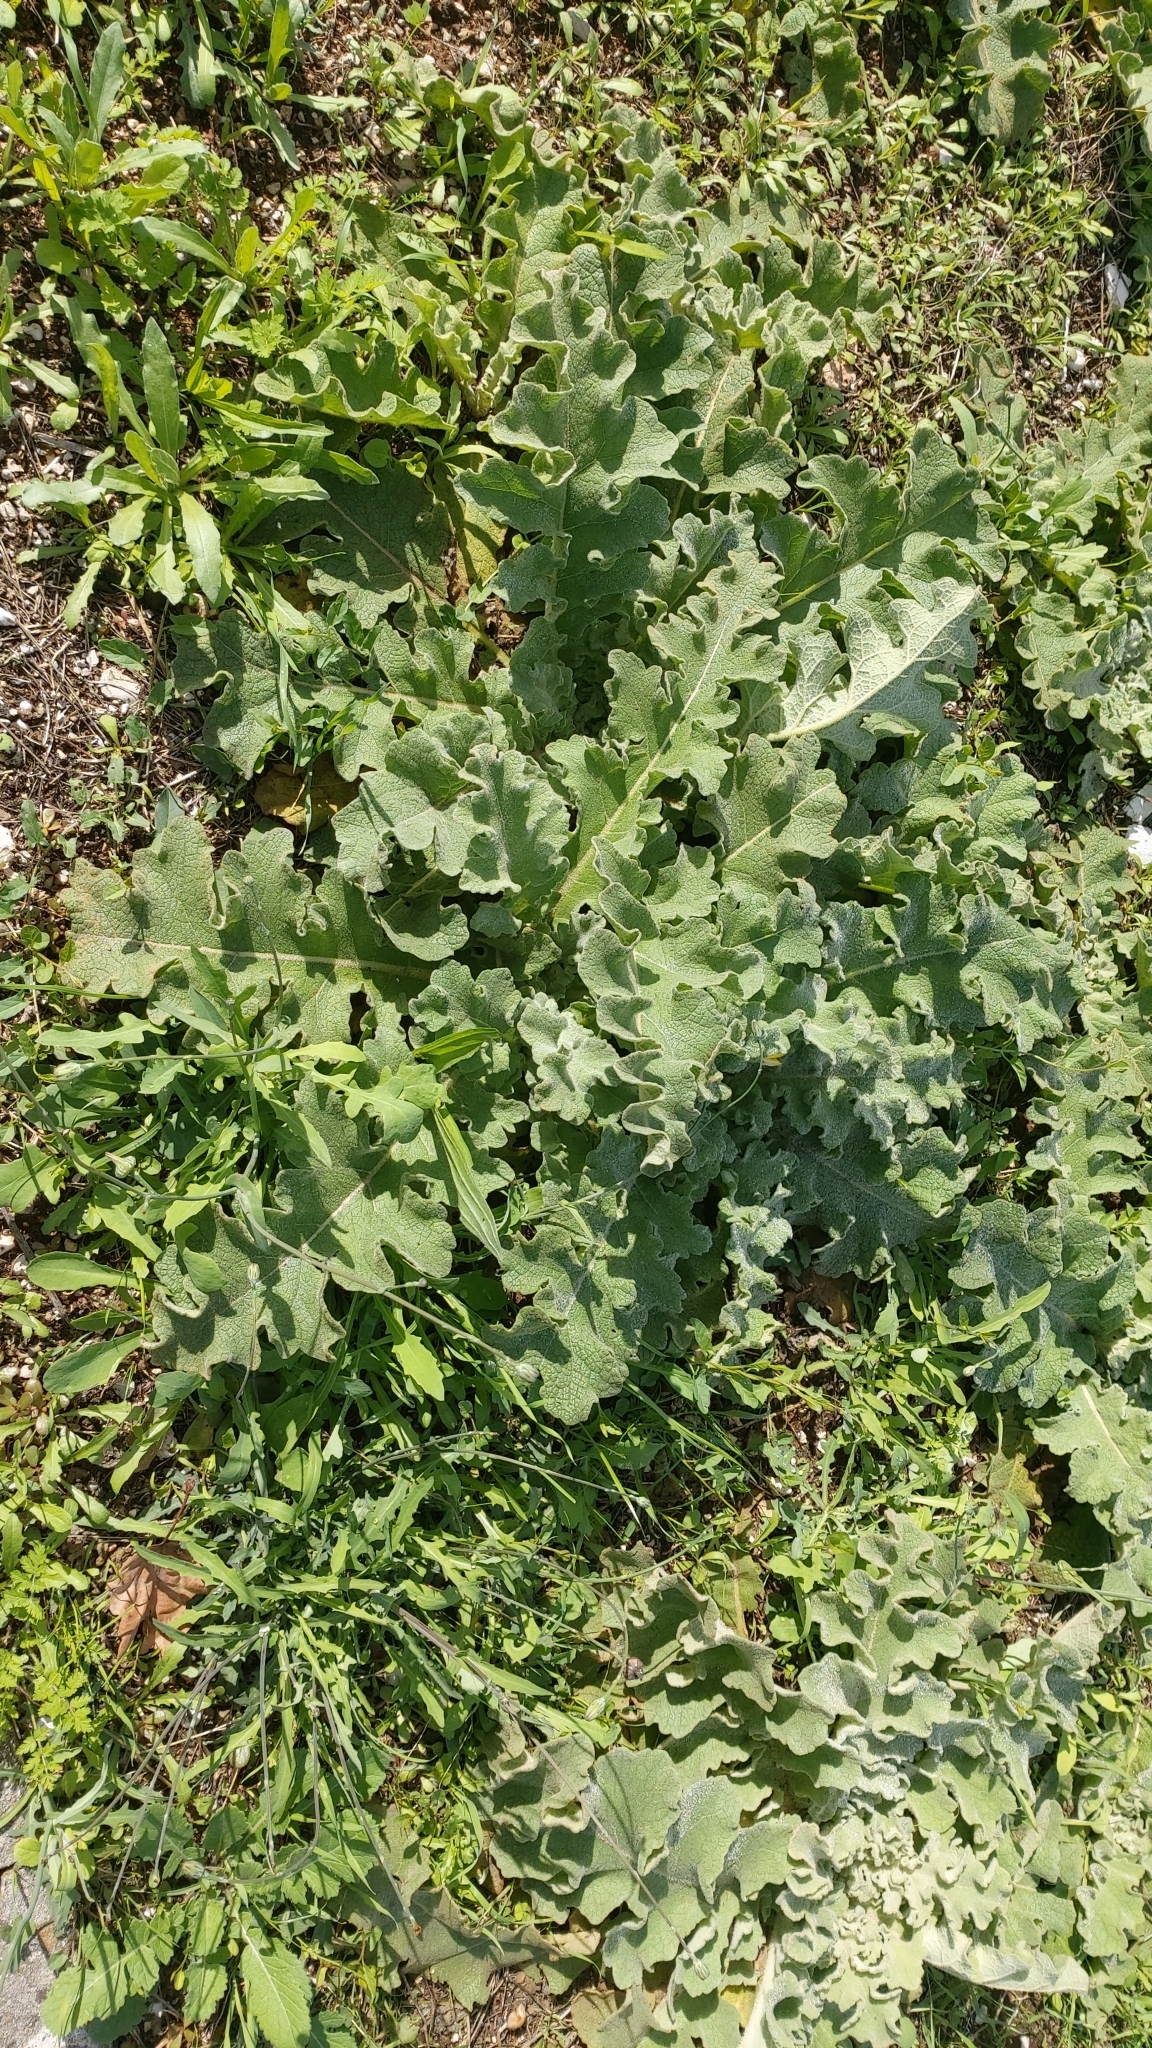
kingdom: Plantae
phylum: Tracheophyta
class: Magnoliopsida
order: Lamiales
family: Scrophulariaceae
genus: Verbascum
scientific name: Verbascum sinuatum
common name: Wavyleaf mullein
